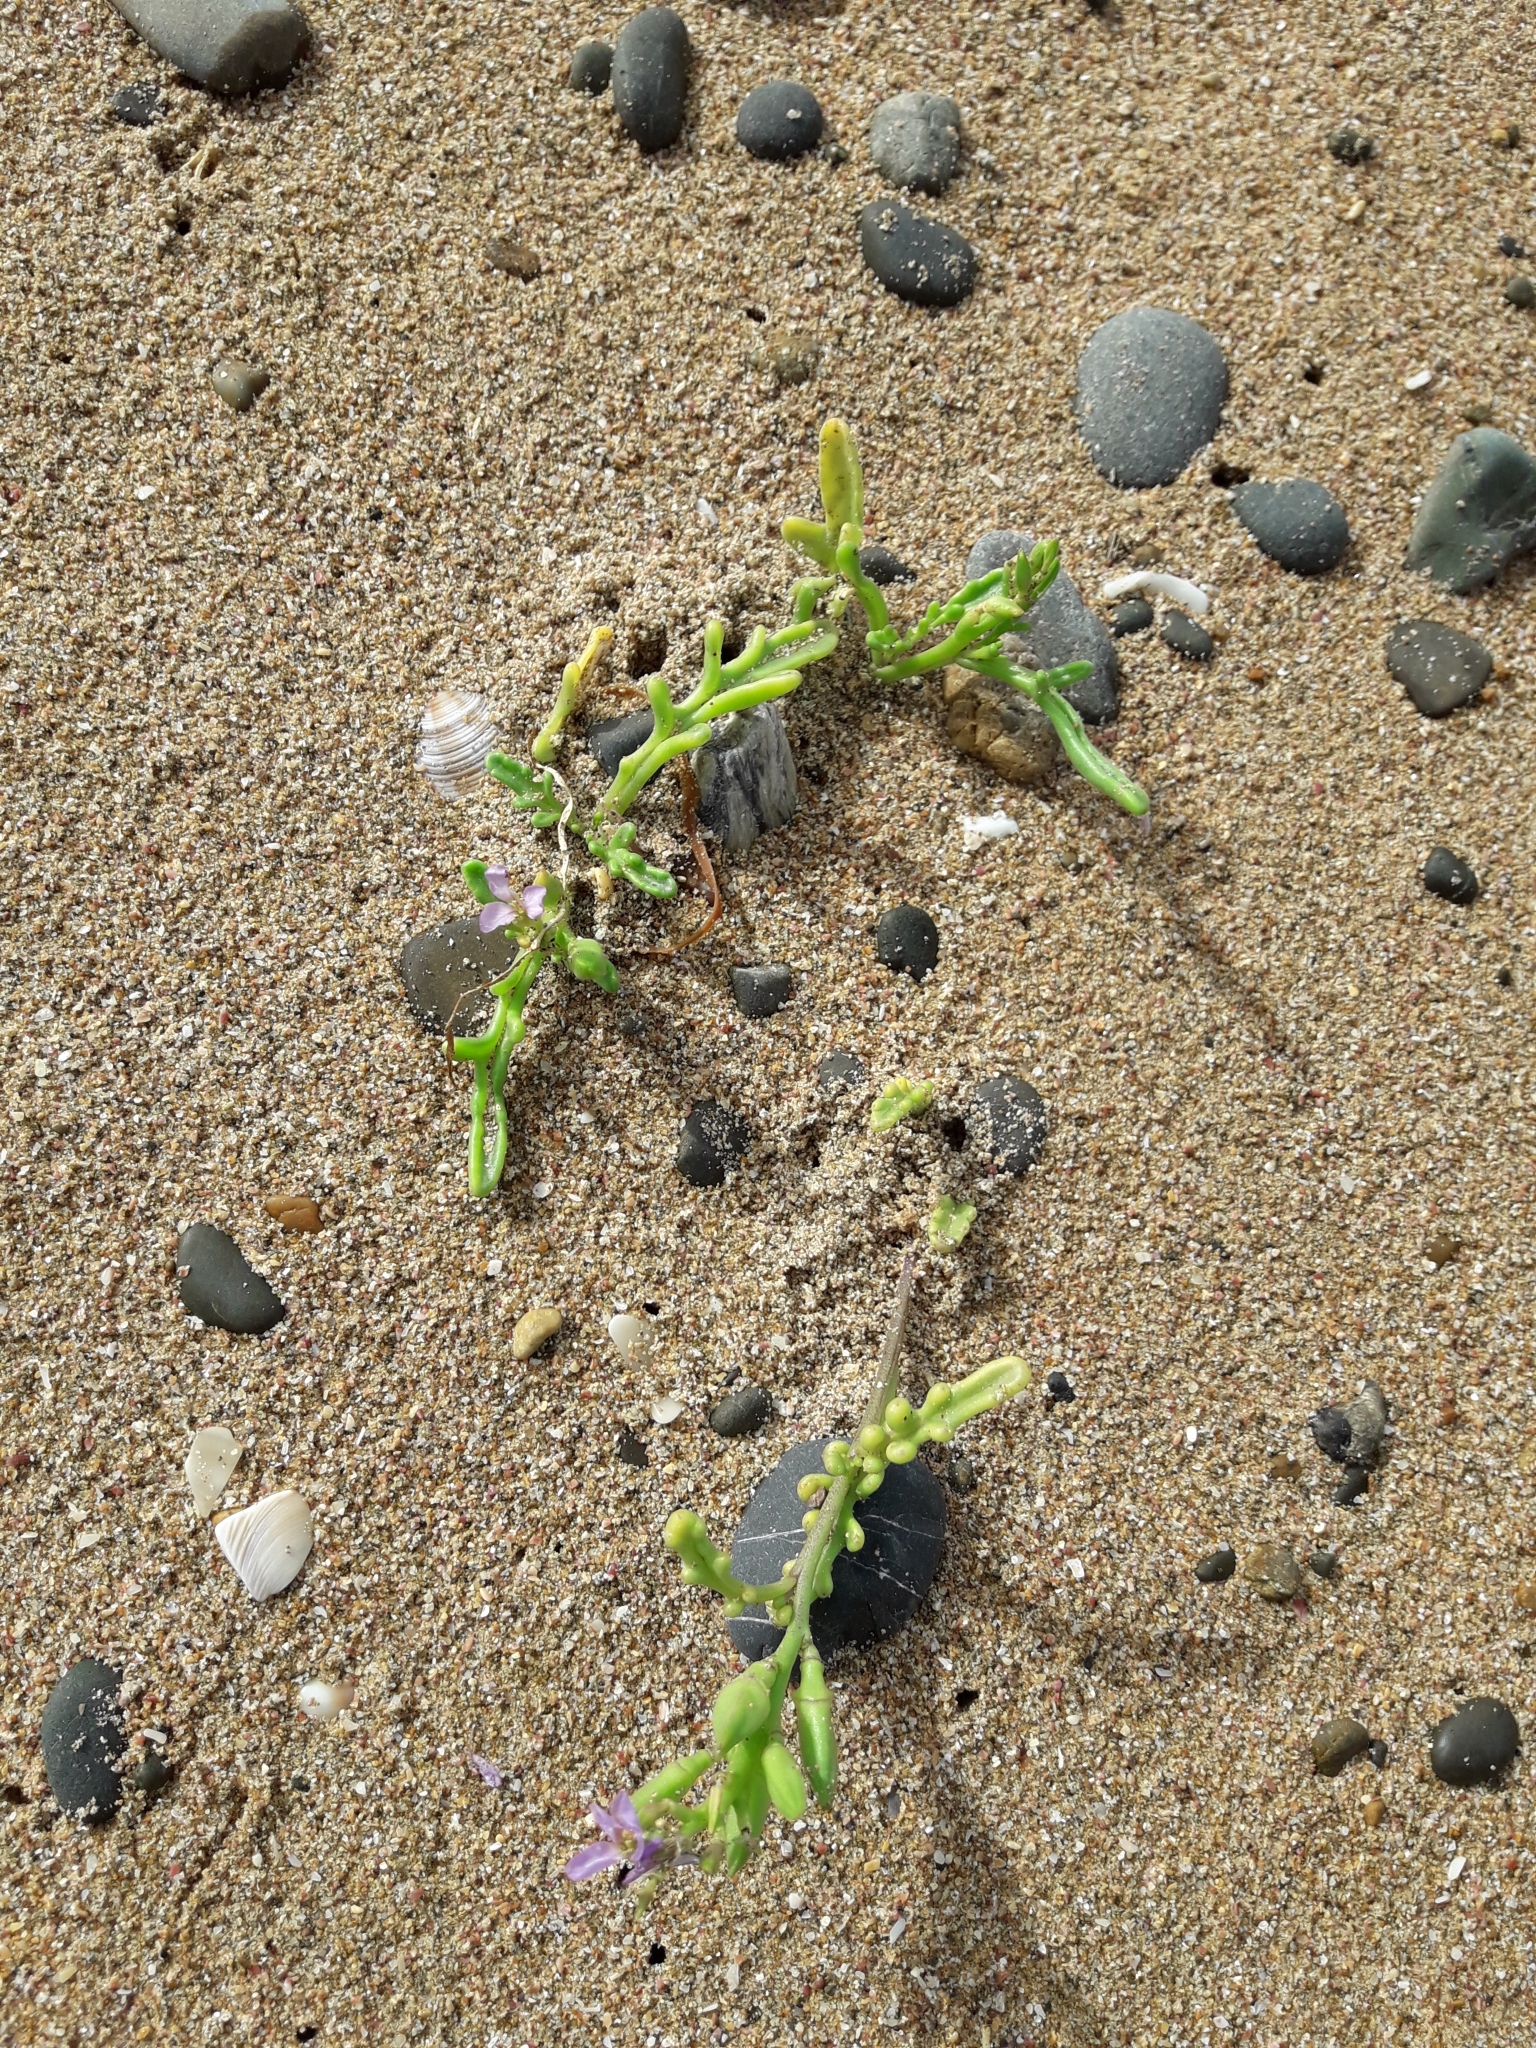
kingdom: Plantae
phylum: Tracheophyta
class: Magnoliopsida
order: Brassicales
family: Brassicaceae
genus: Cakile
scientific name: Cakile maritima
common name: Sea rocket
